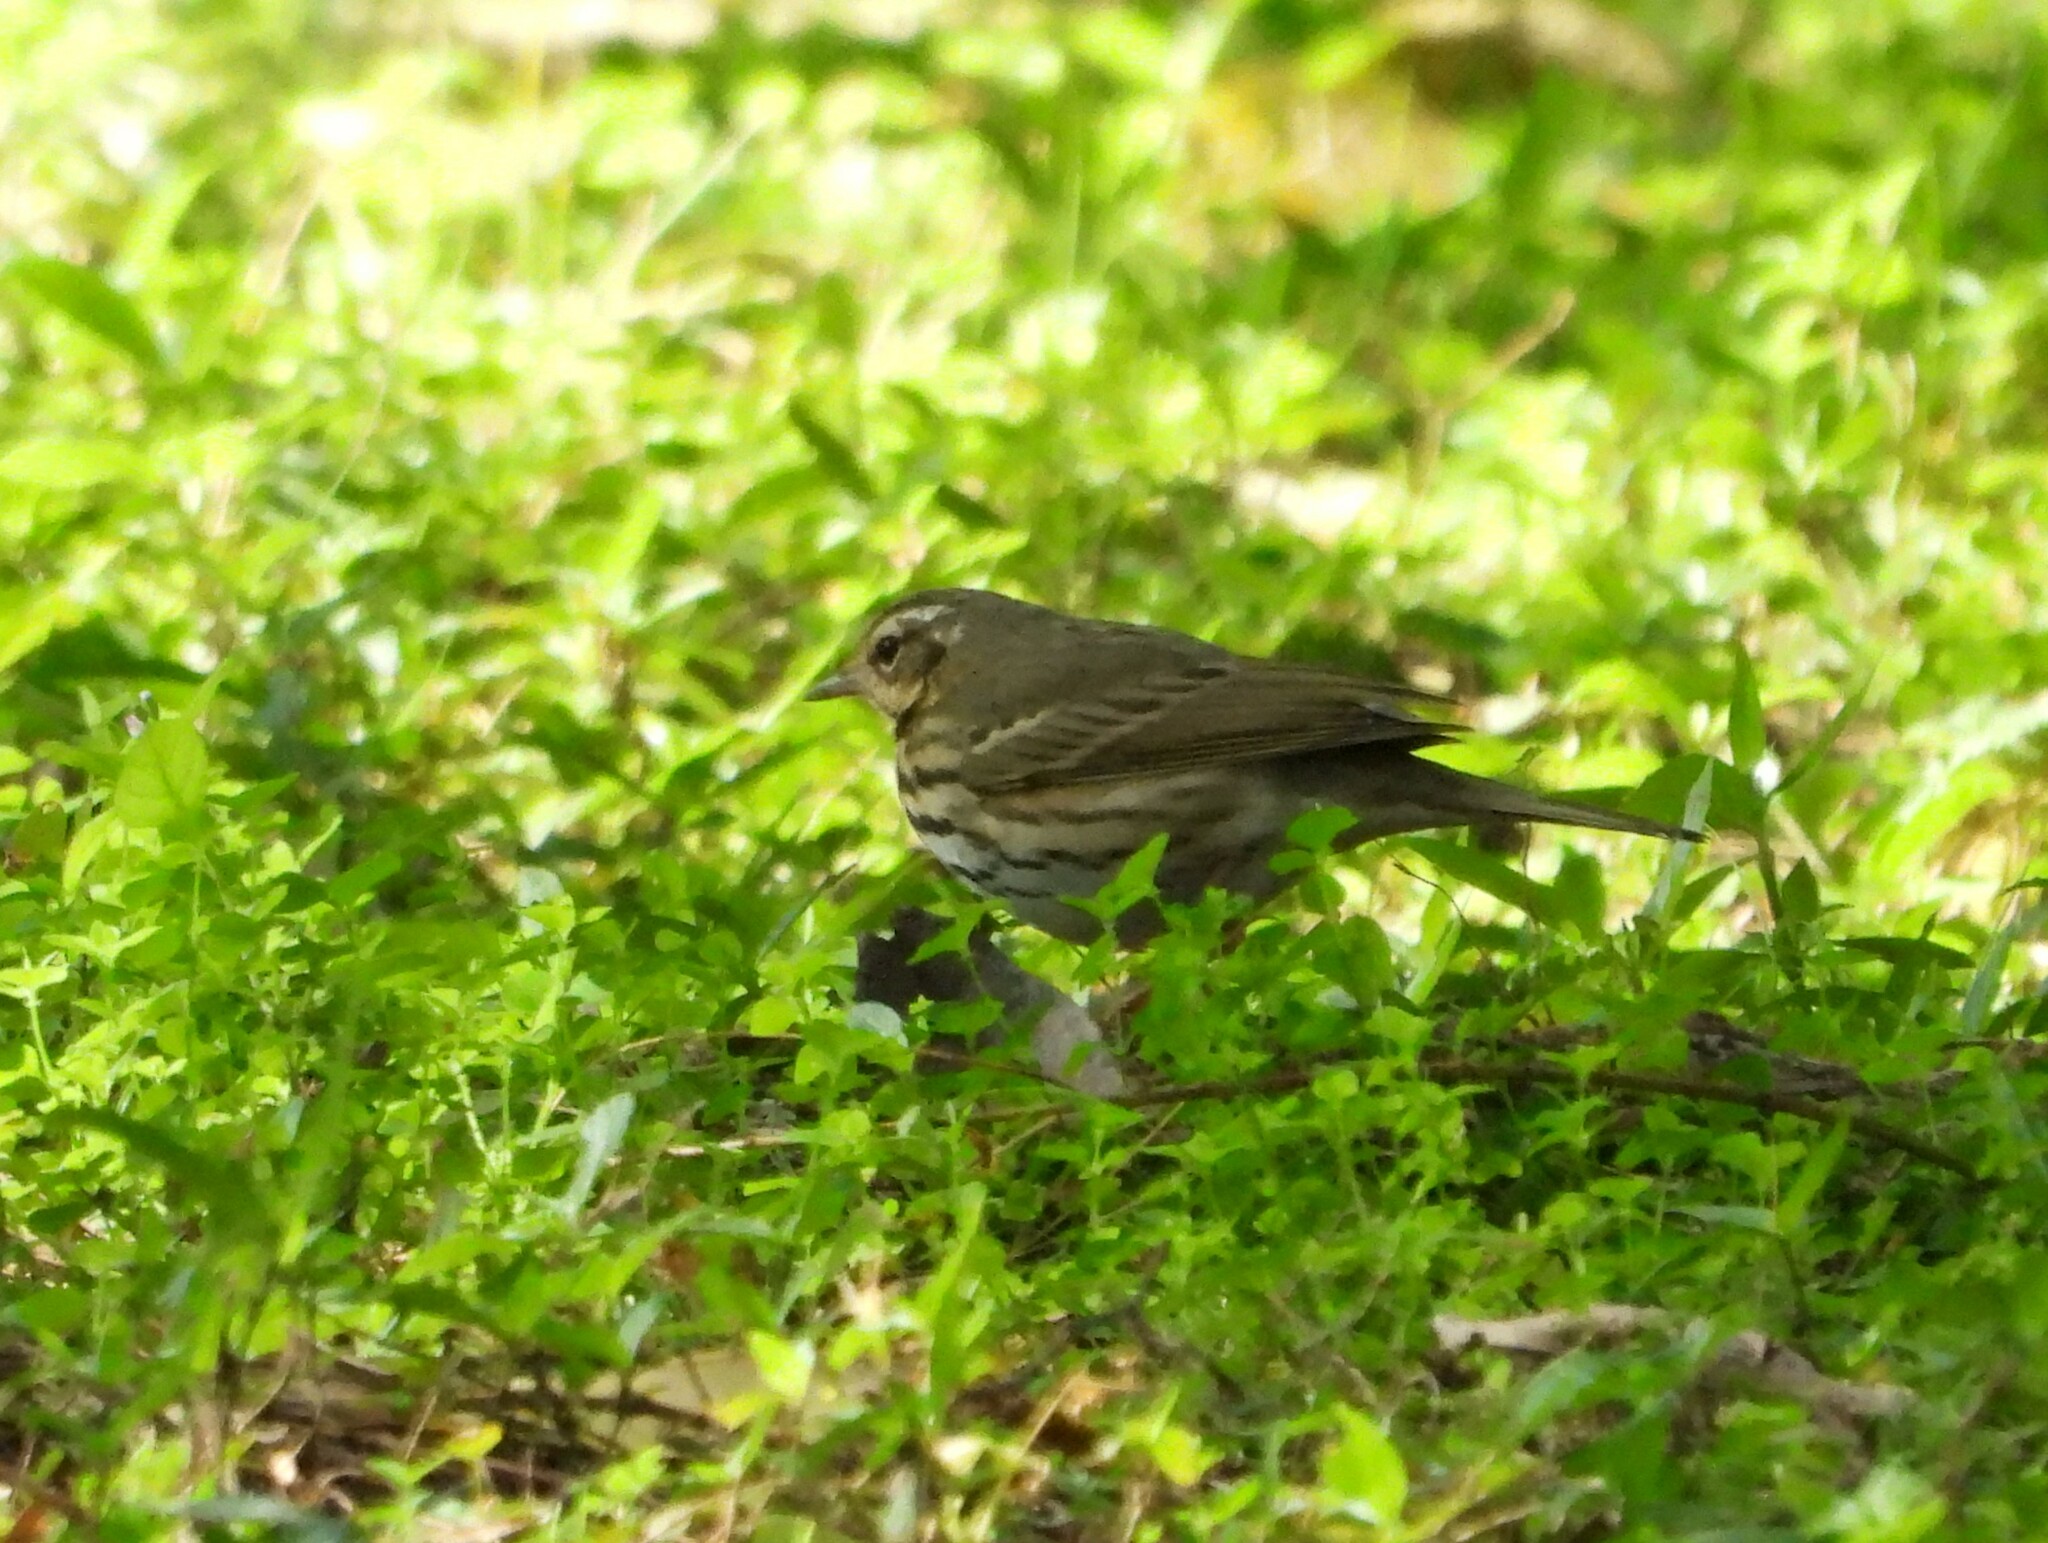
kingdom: Animalia
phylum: Chordata
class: Aves
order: Passeriformes
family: Motacillidae
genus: Anthus
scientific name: Anthus hodgsoni
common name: Olive-backed pipit
